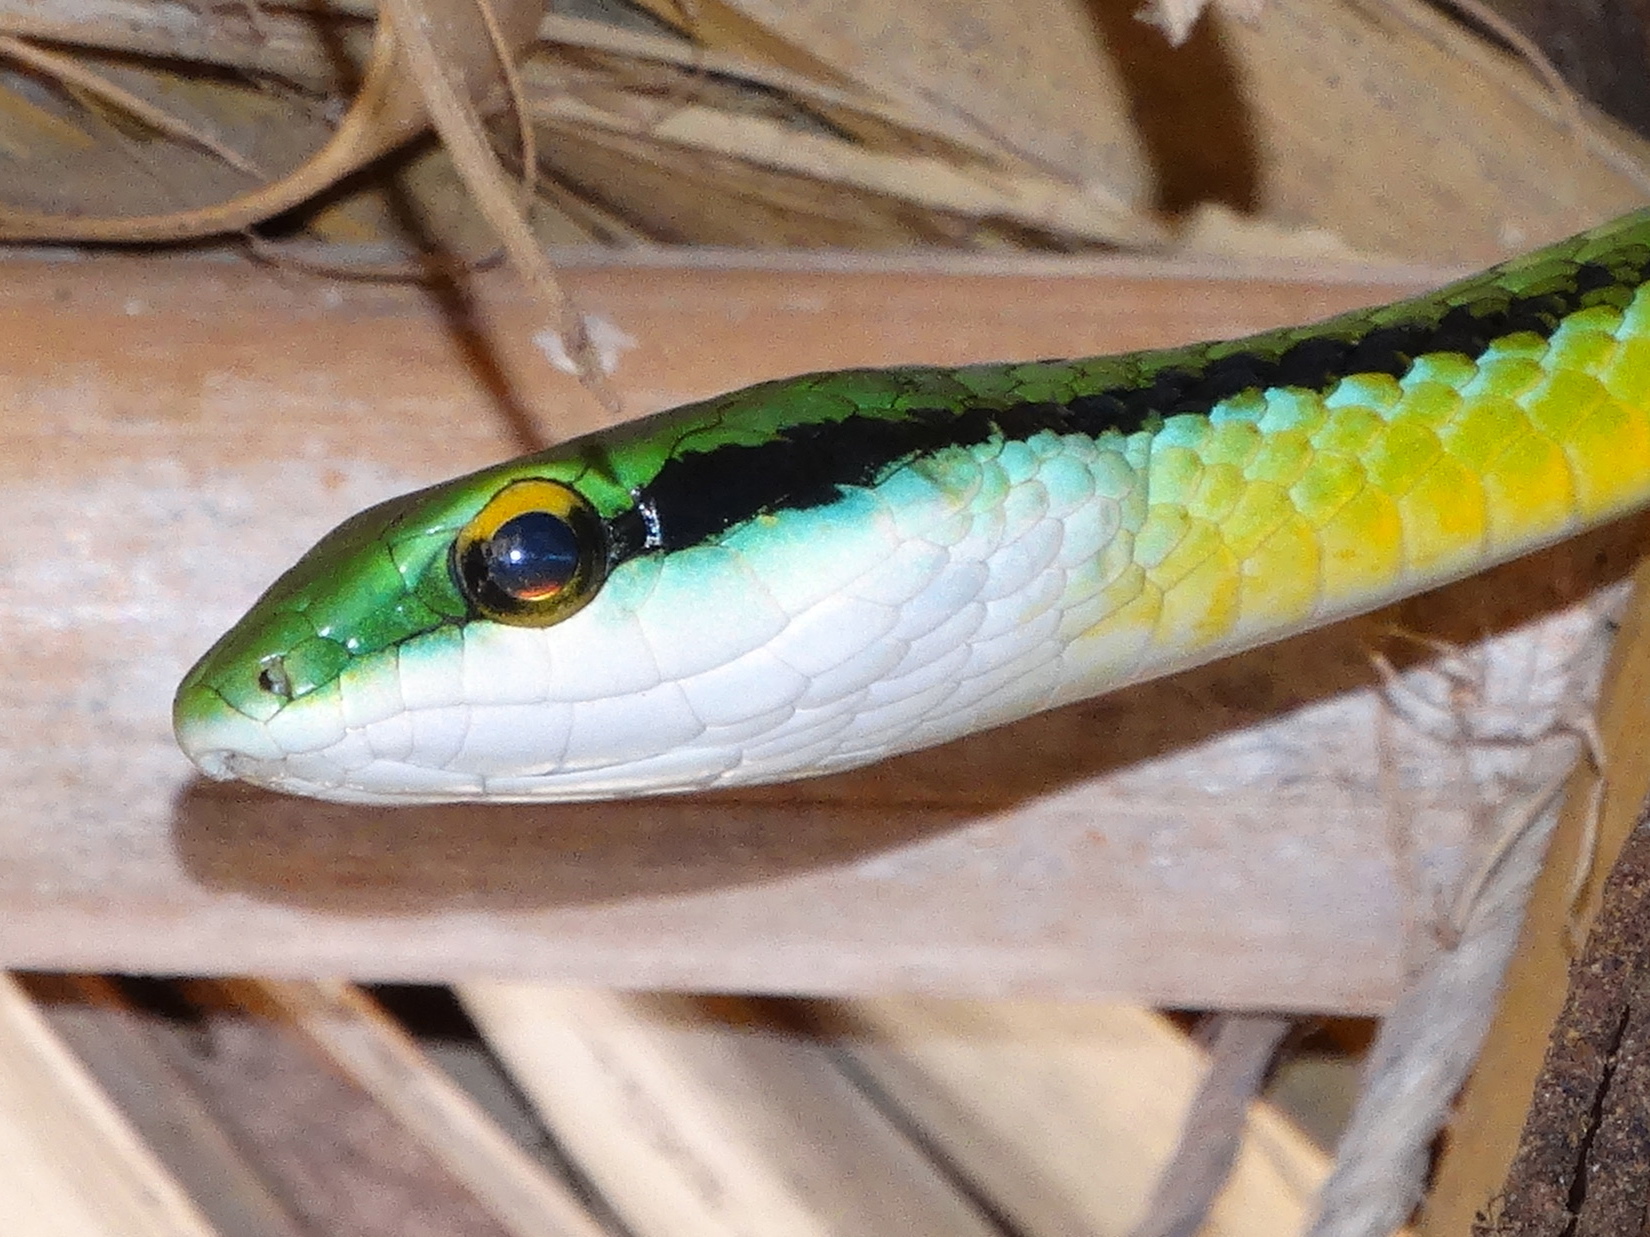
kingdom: Animalia
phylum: Chordata
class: Squamata
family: Colubridae
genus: Leptophis
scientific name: Leptophis diplotropis
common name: Pacific coast parrot snake
